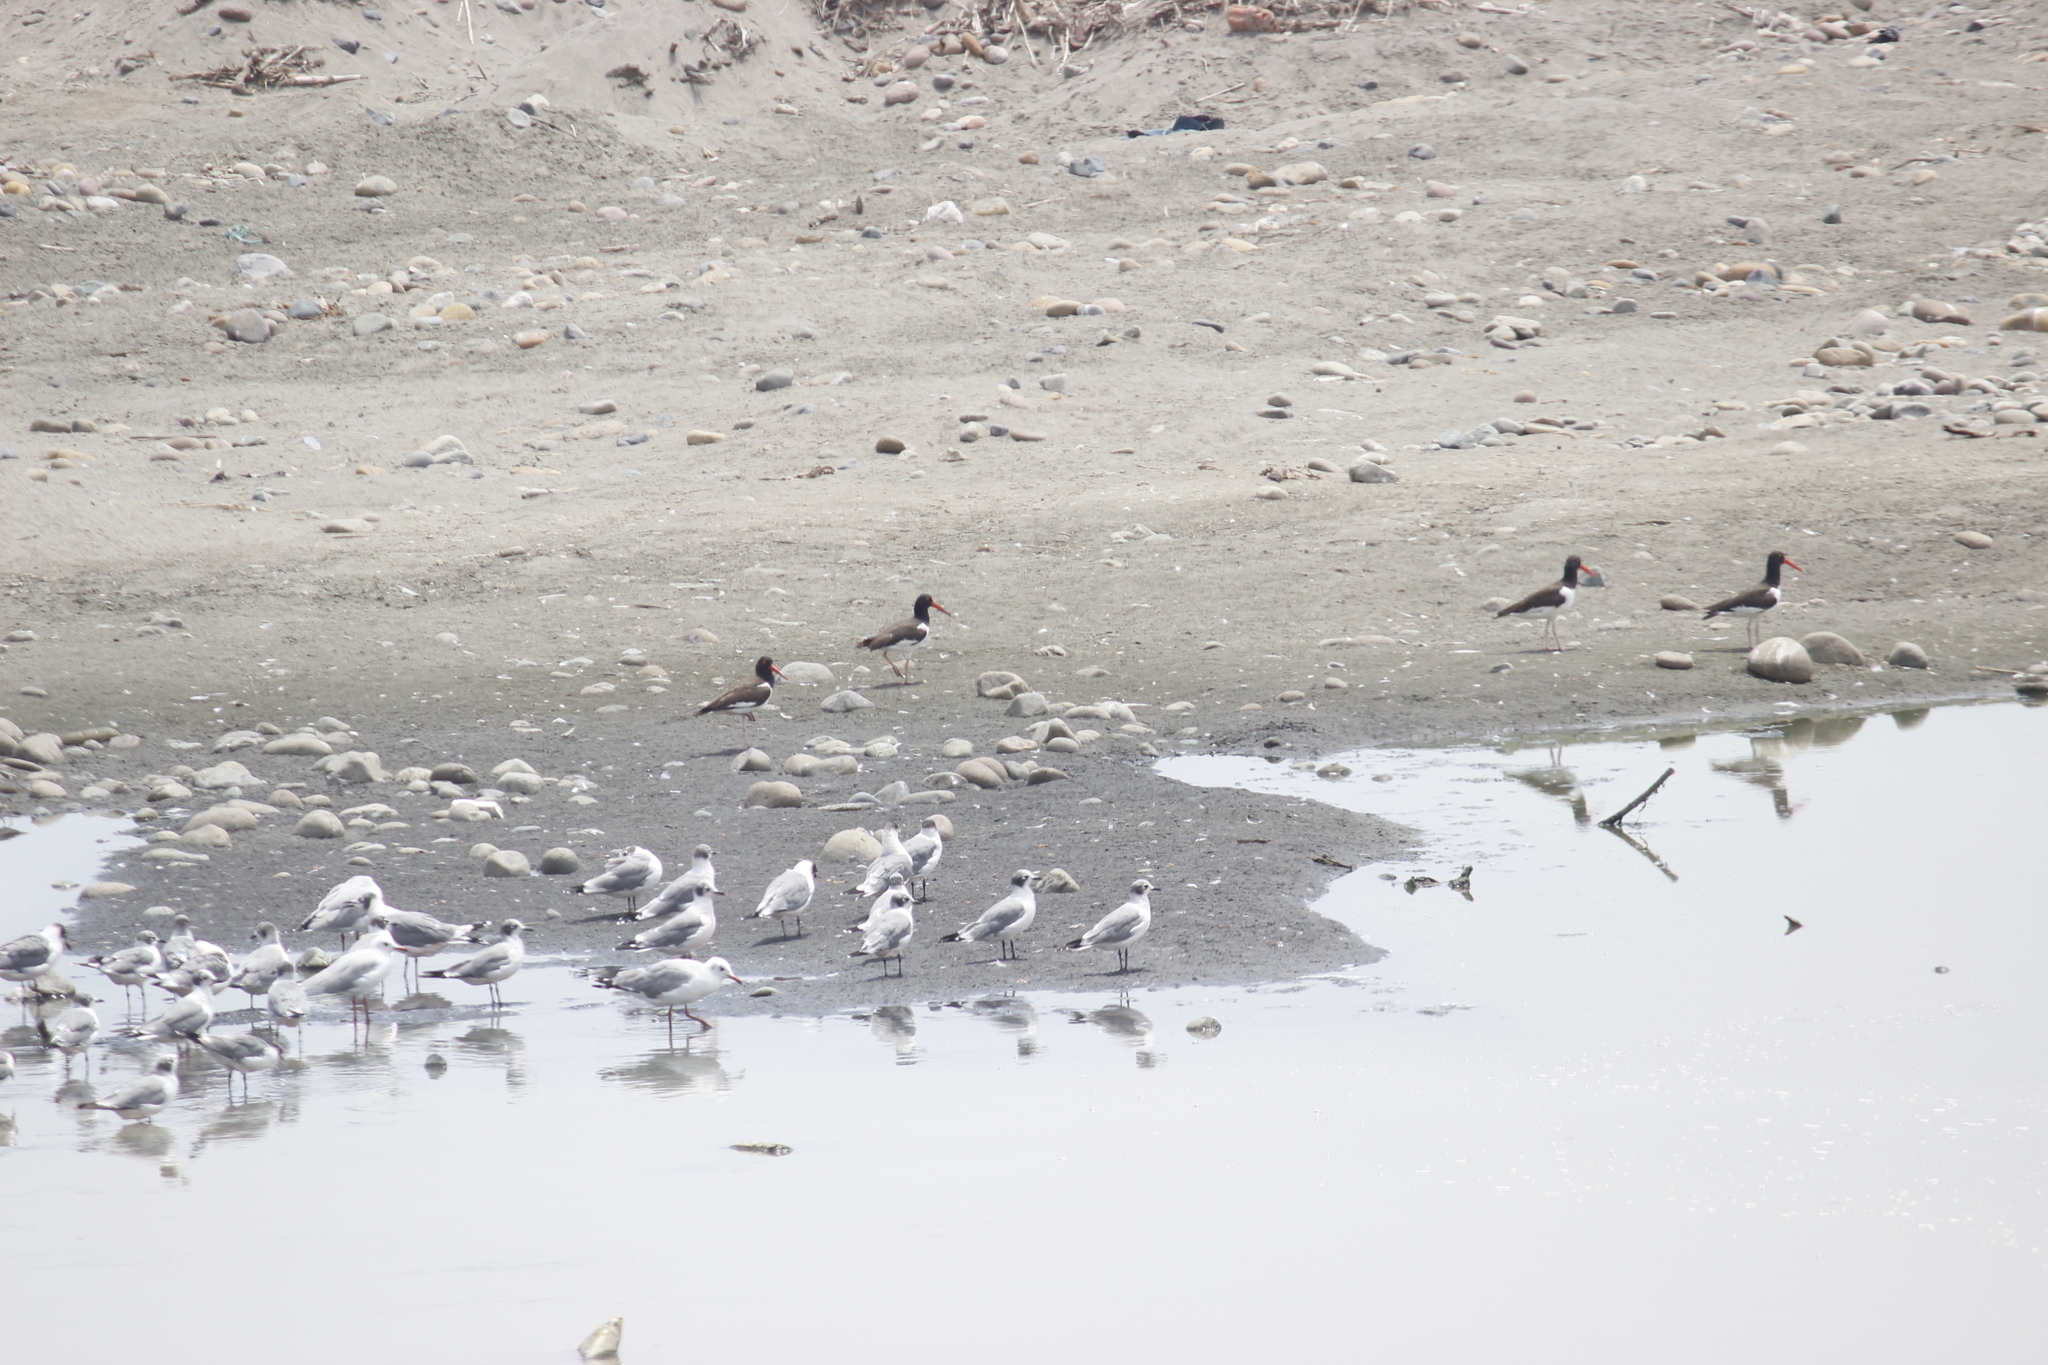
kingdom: Animalia
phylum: Chordata
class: Aves
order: Charadriiformes
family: Haematopodidae
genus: Haematopus
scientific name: Haematopus palliatus
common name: American oystercatcher
